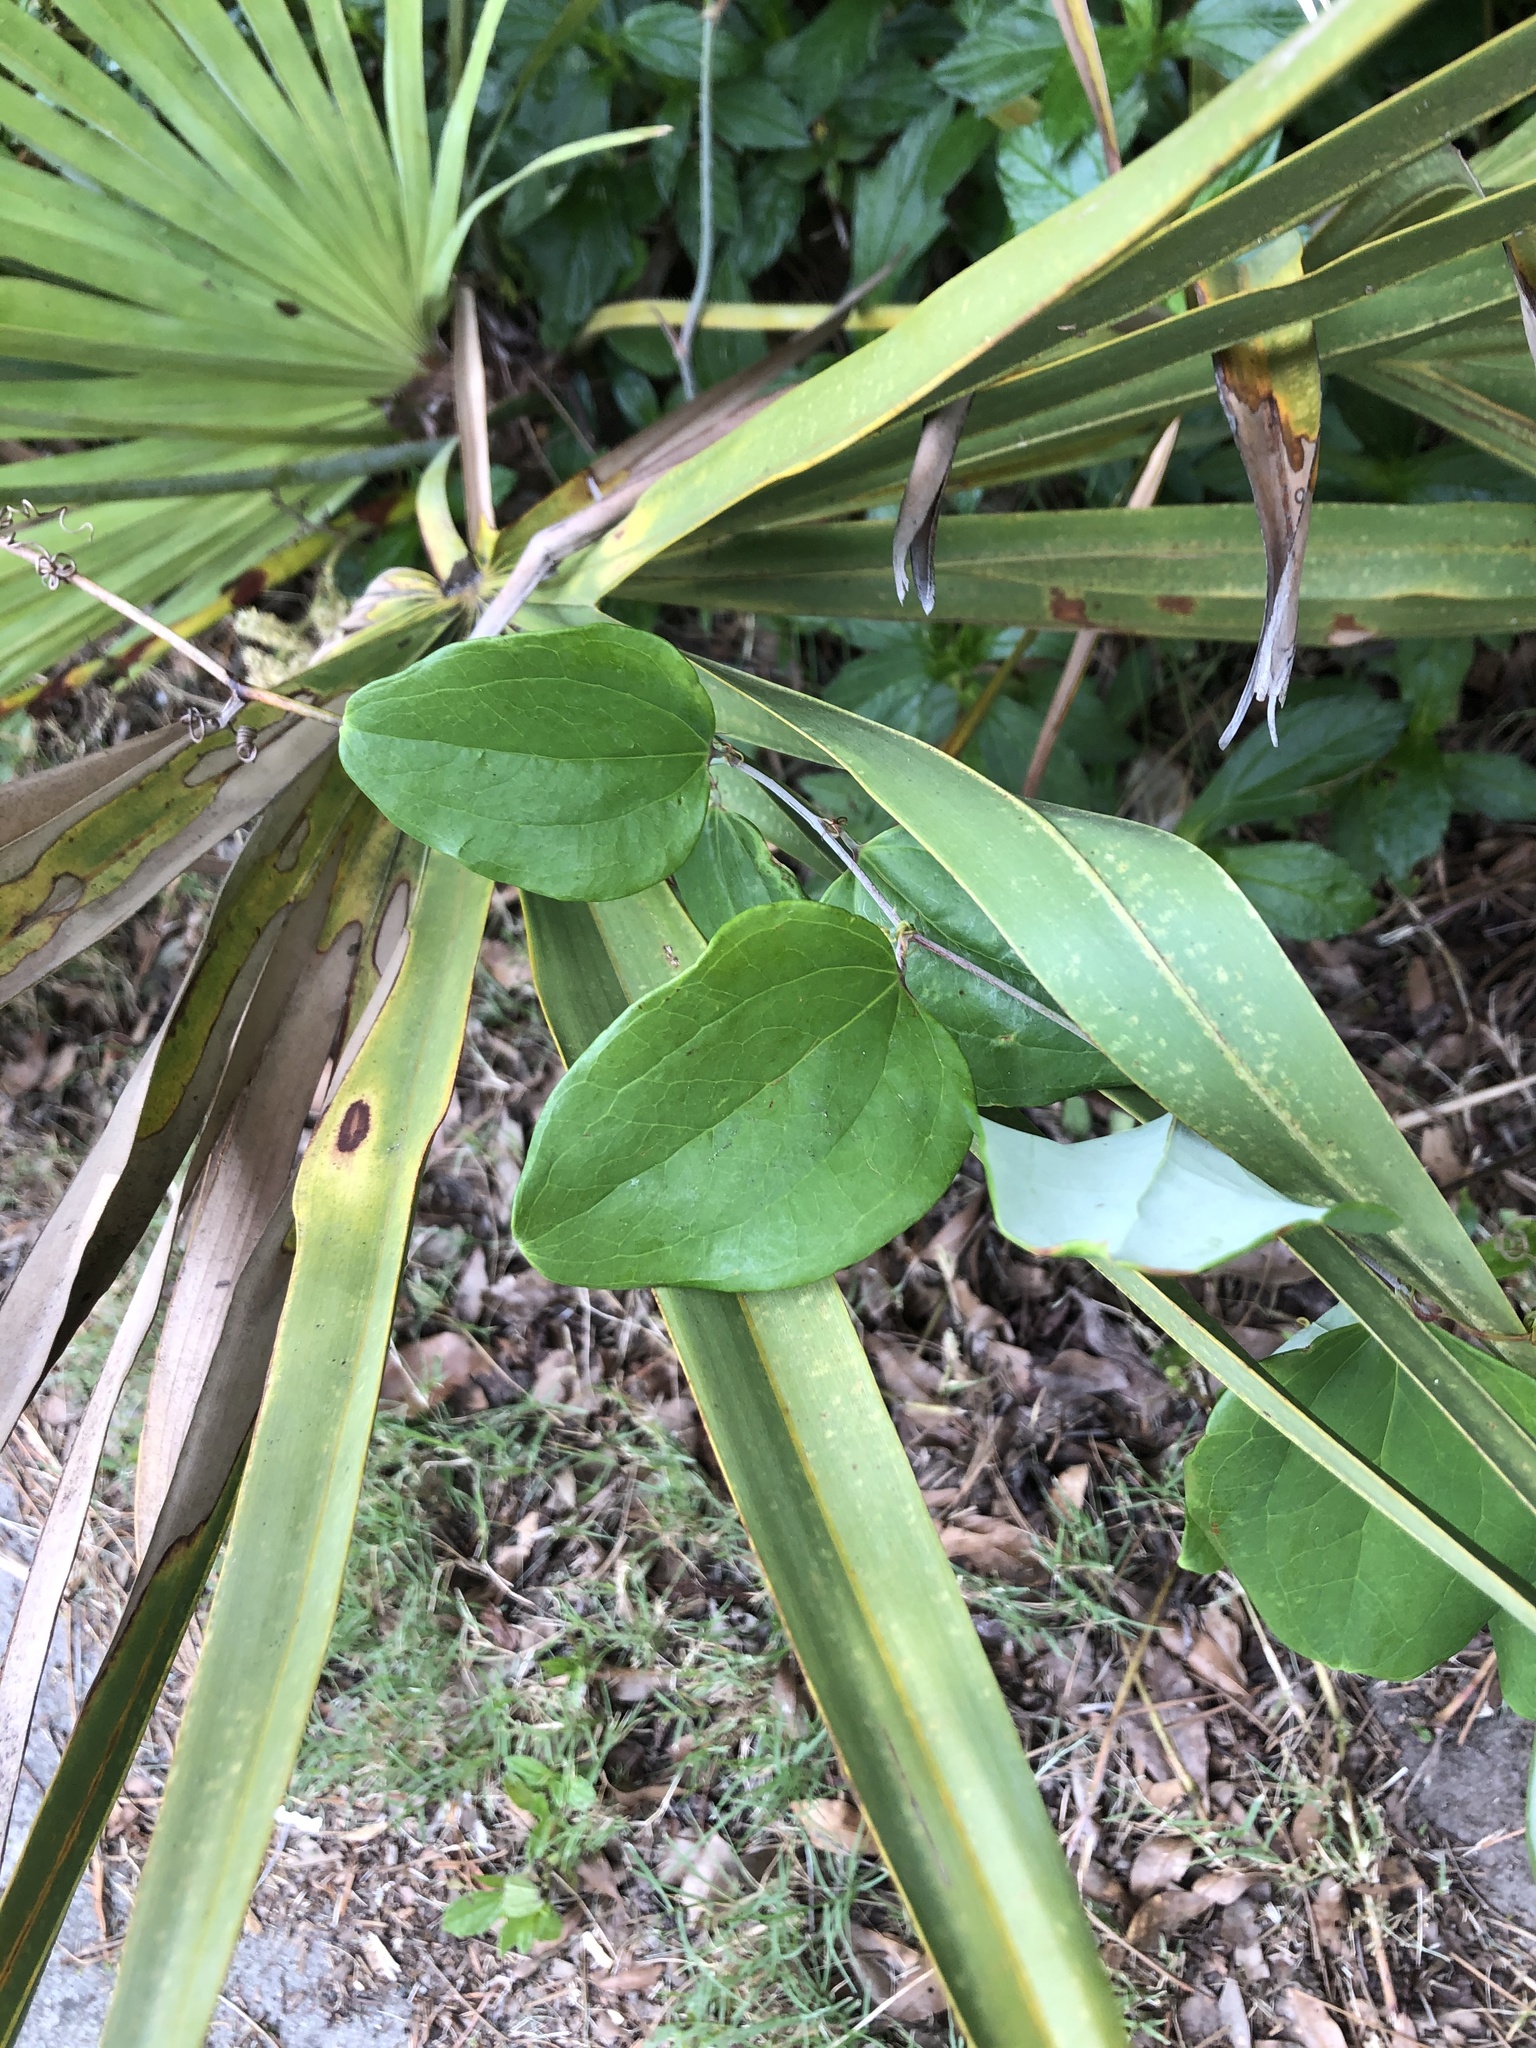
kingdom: Plantae
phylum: Tracheophyta
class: Liliopsida
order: Liliales
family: Smilacaceae
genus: Smilax
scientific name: Smilax glauca
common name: Cat greenbrier
